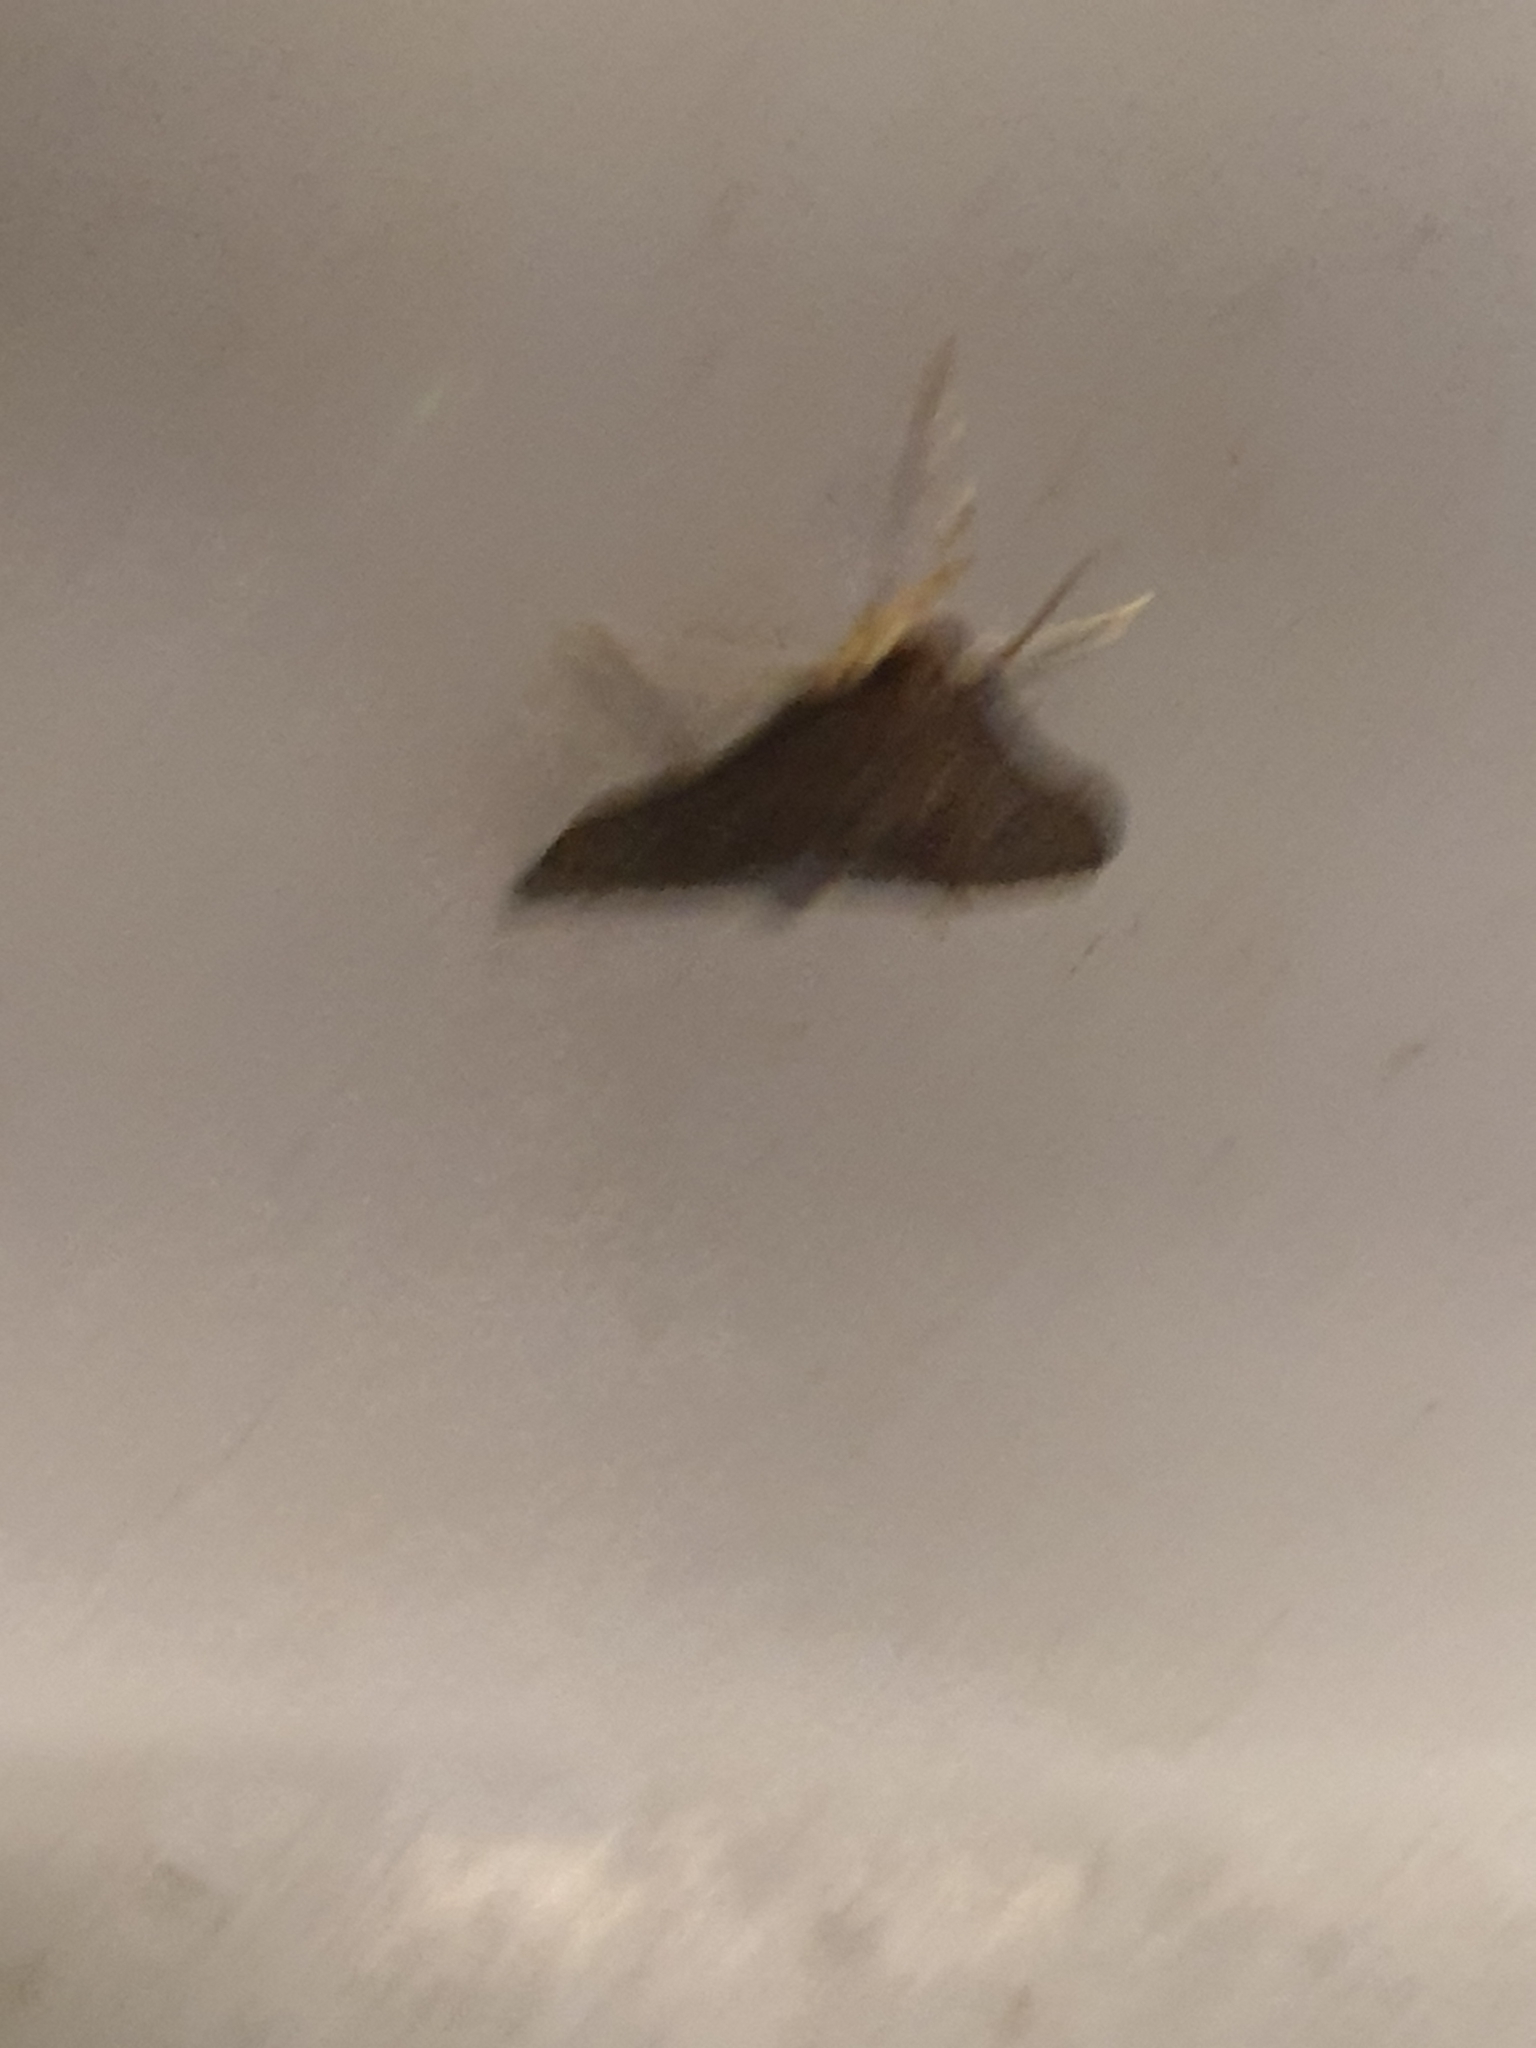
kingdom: Animalia
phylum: Arthropoda
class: Insecta
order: Lepidoptera
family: Crambidae
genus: Piletocera
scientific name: Piletocera macroperalis
